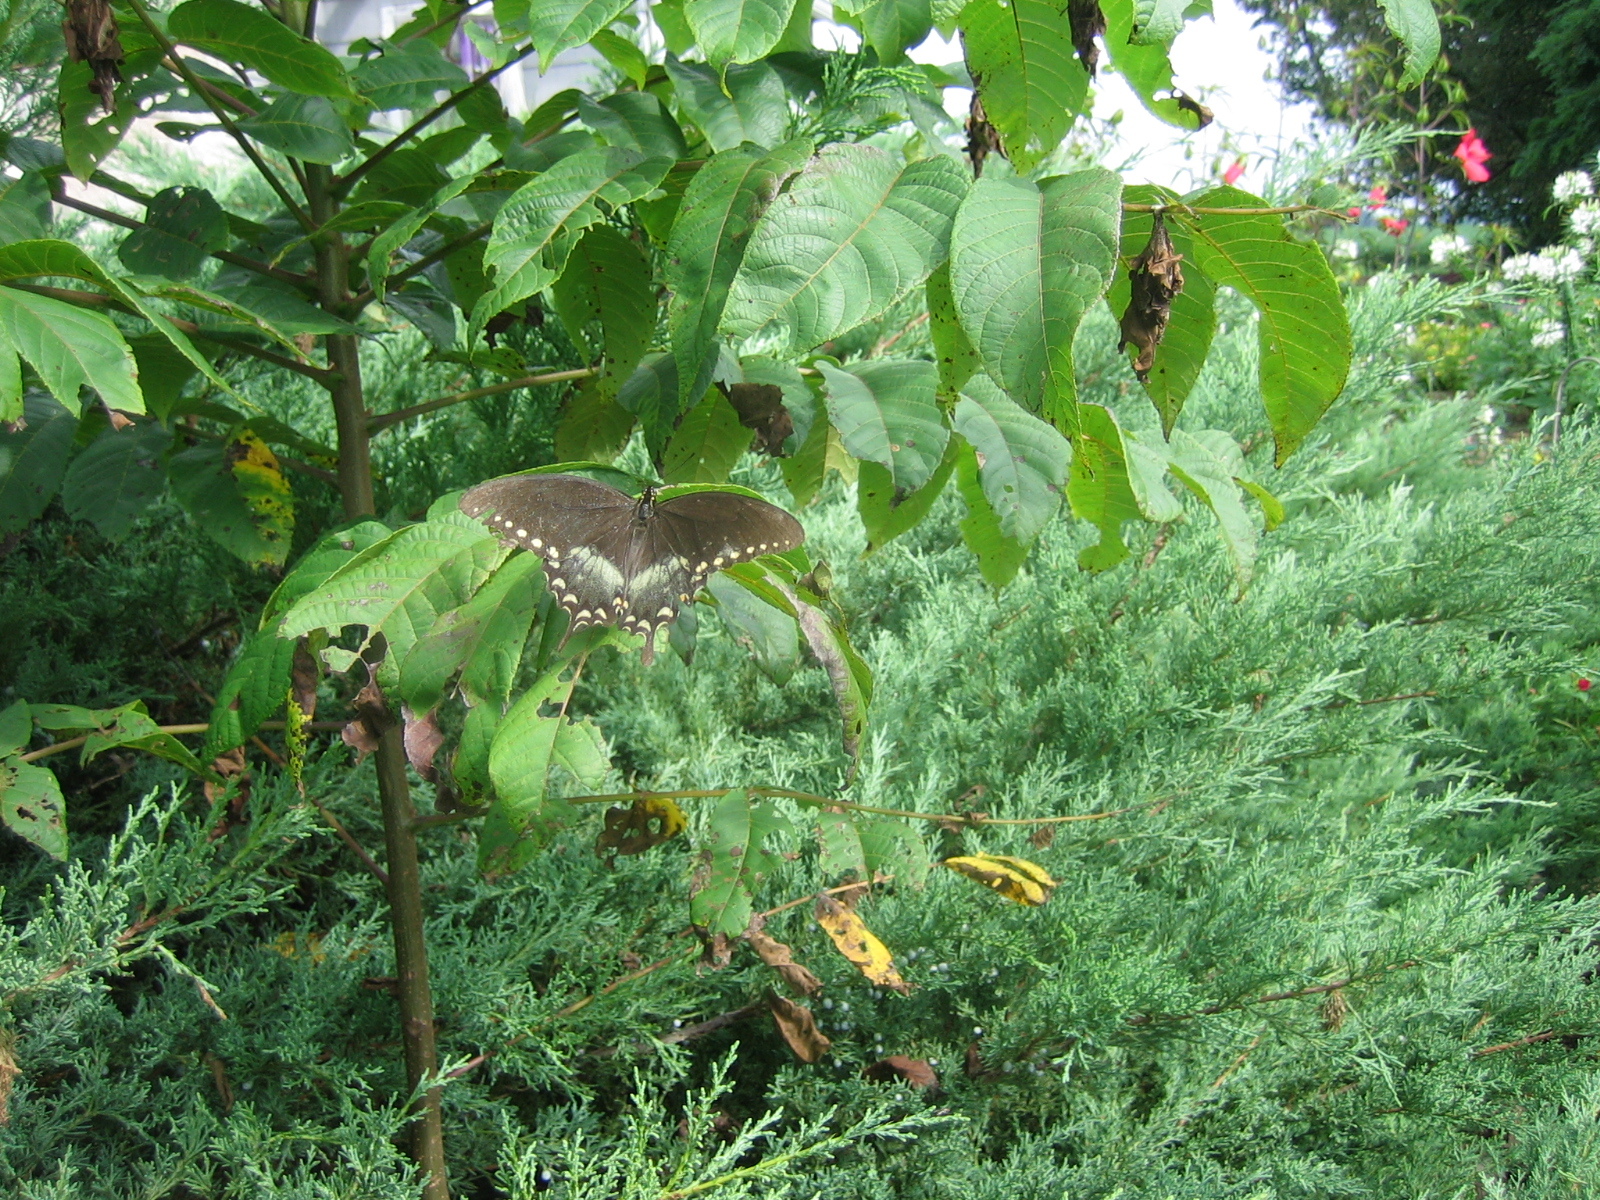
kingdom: Animalia
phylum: Arthropoda
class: Insecta
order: Lepidoptera
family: Papilionidae
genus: Papilio
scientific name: Papilio troilus
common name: Spicebush swallowtail
